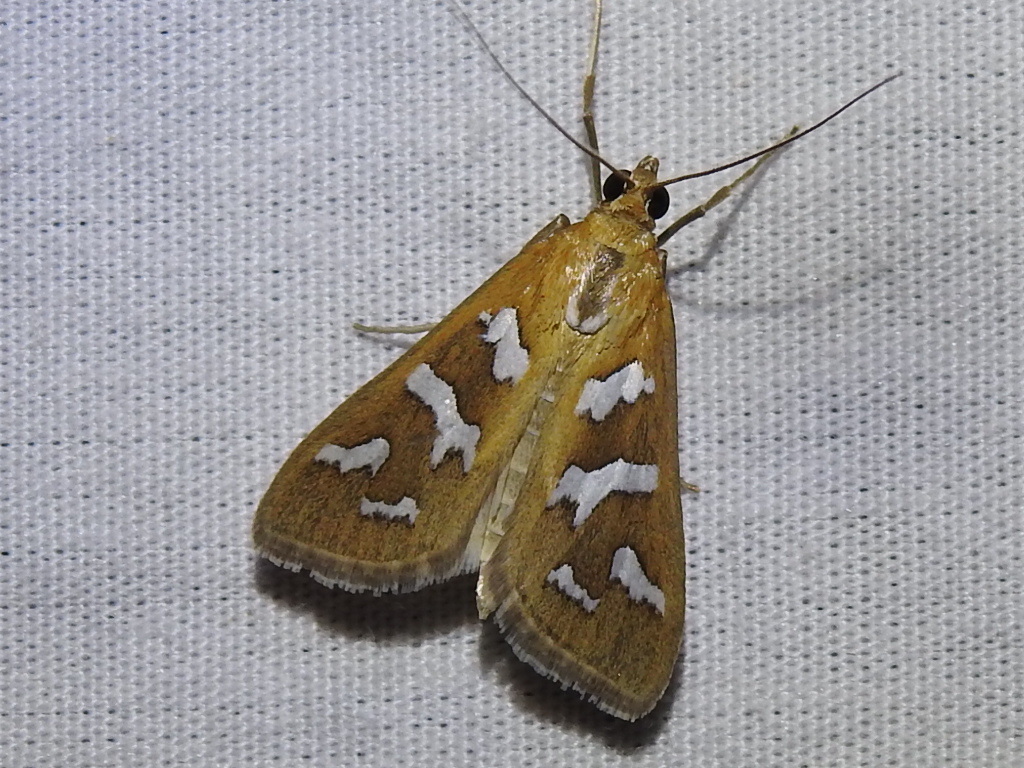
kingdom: Animalia
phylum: Arthropoda
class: Insecta
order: Lepidoptera
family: Crambidae
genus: Diastictis
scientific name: Diastictis fracturalis
